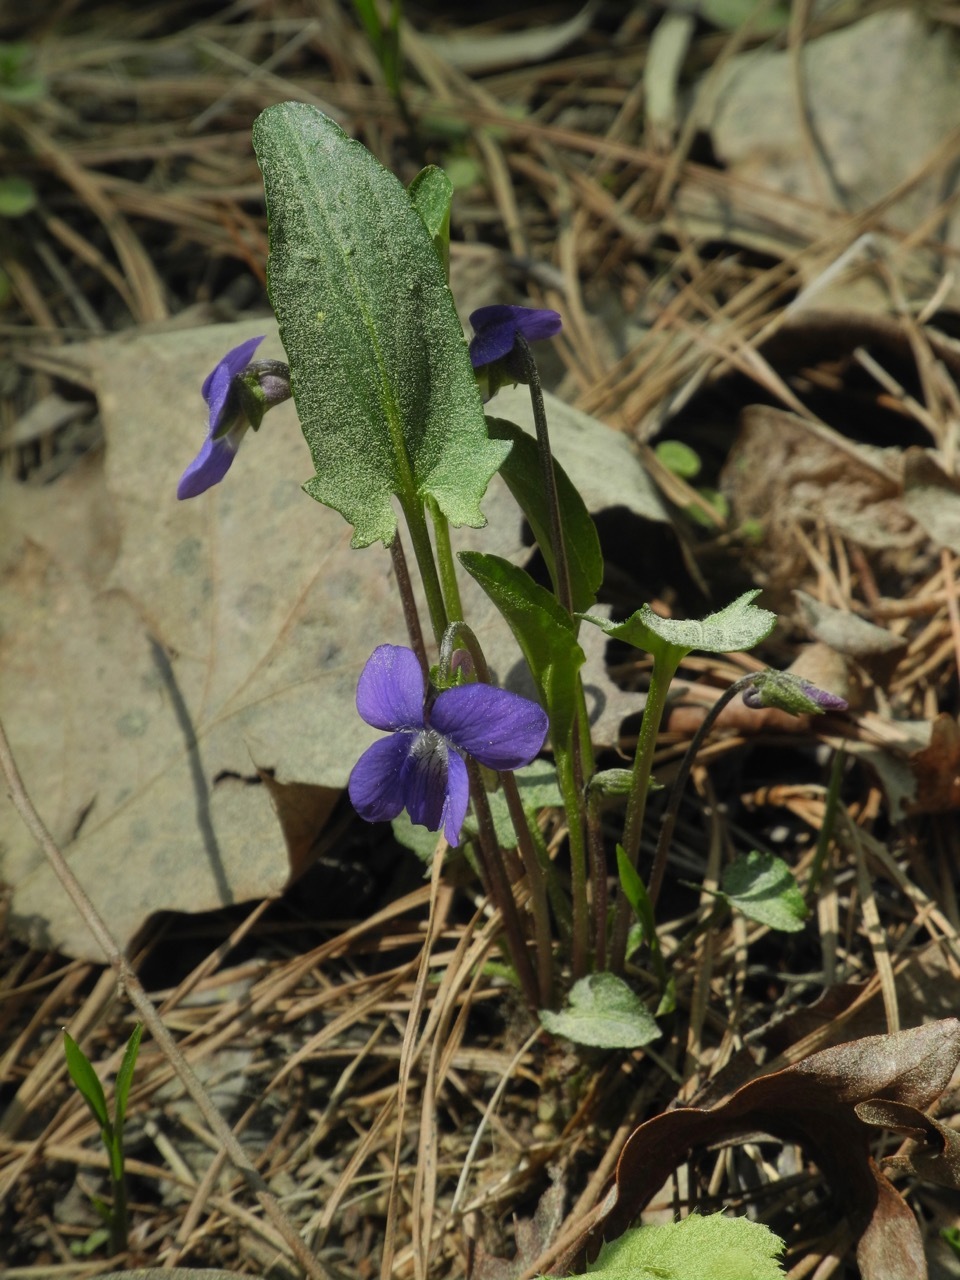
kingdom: Plantae
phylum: Tracheophyta
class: Magnoliopsida
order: Malpighiales
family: Violaceae
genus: Viola
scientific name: Viola sagittata
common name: Arrowhead violet
